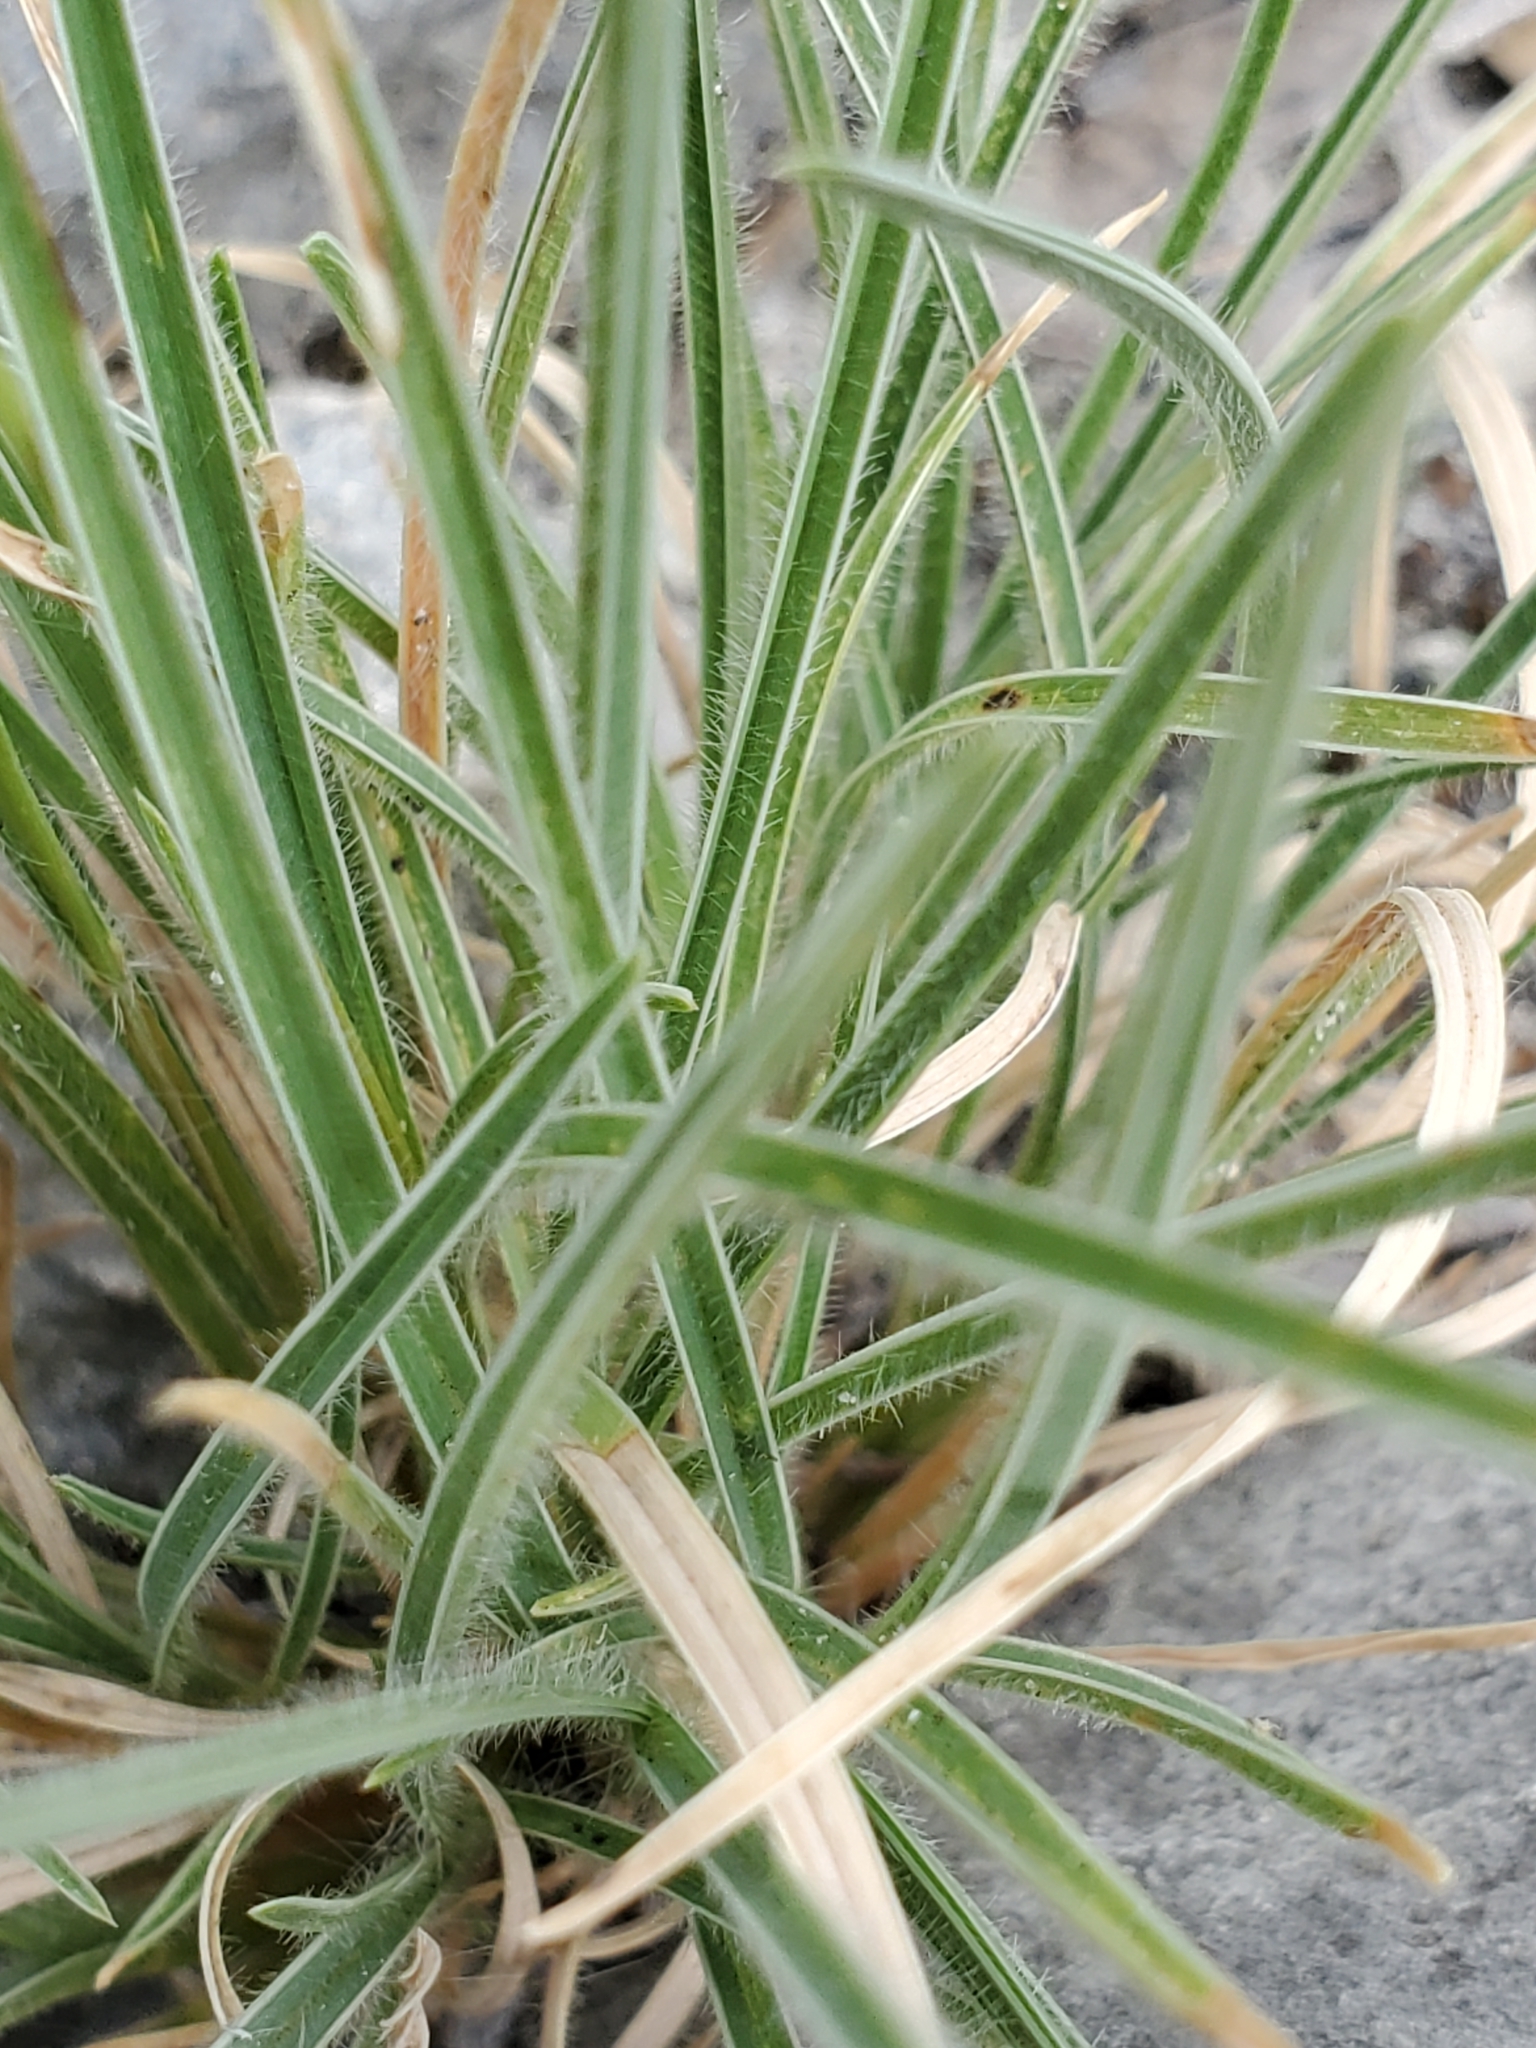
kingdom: Plantae
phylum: Tracheophyta
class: Liliopsida
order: Poales
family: Poaceae
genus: Erioneuron
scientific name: Erioneuron pilosum
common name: Hairy woolly grass
